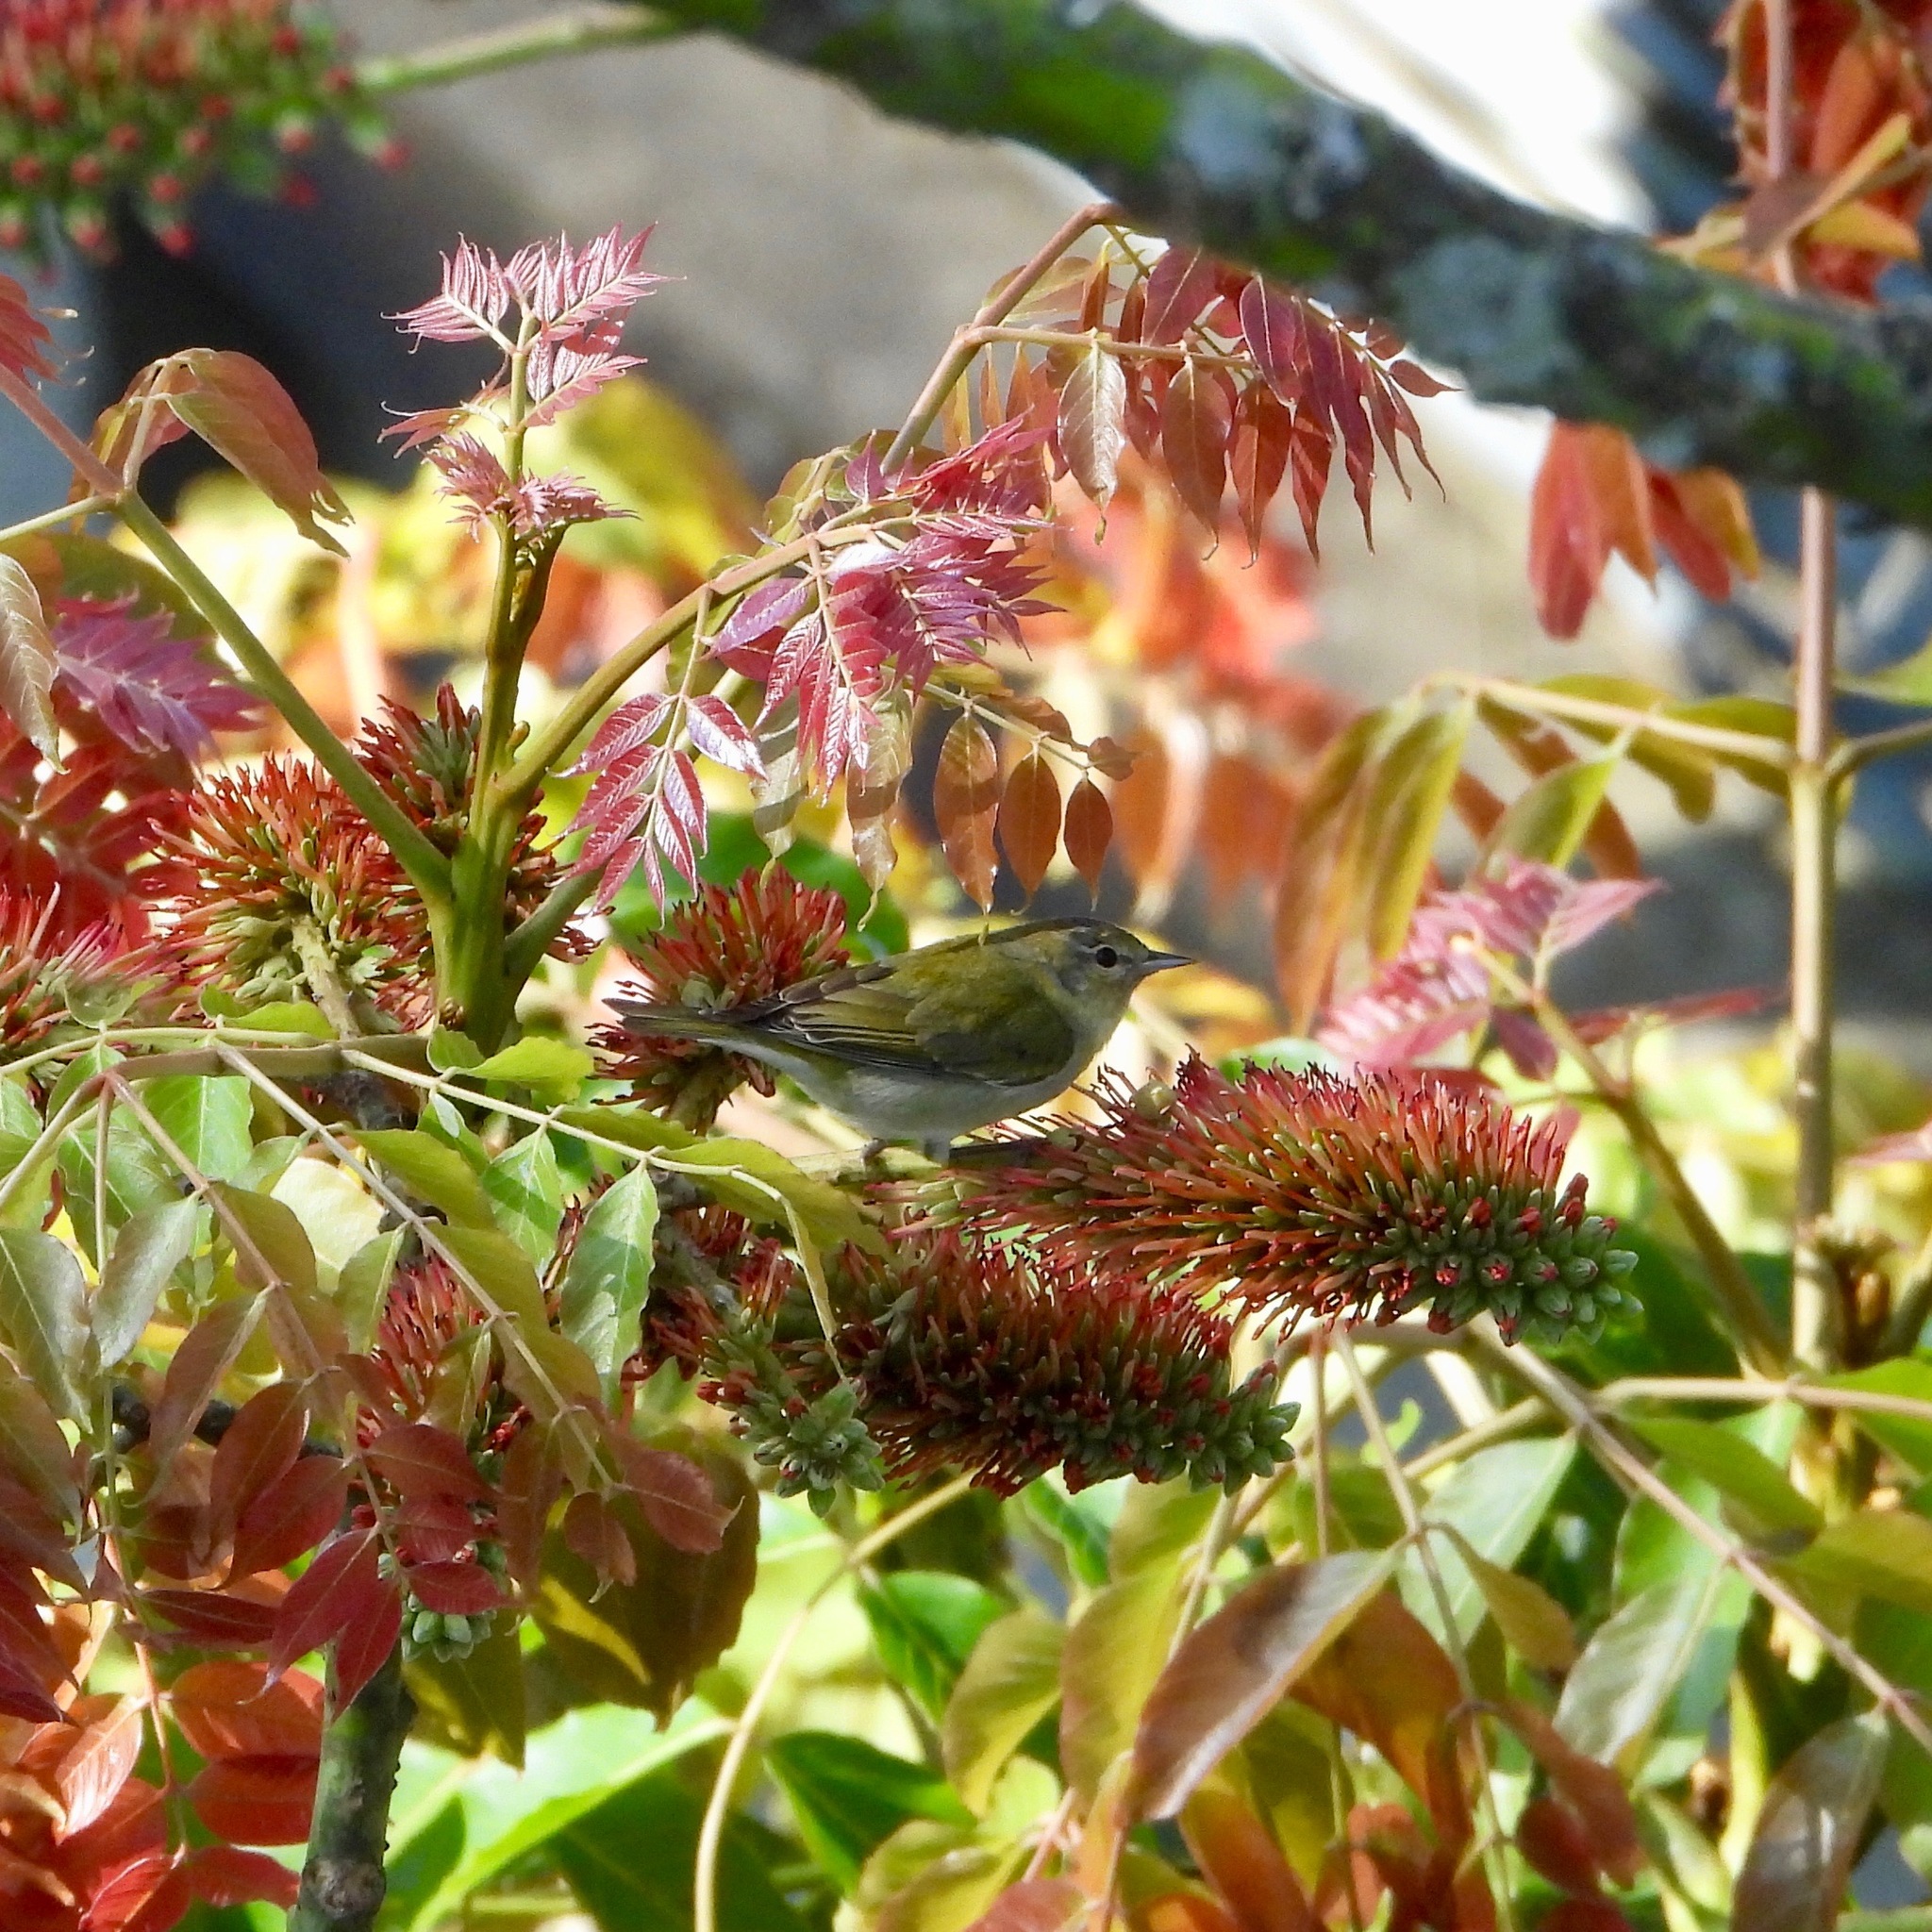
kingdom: Animalia
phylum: Chordata
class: Aves
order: Passeriformes
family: Parulidae
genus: Leiothlypis
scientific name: Leiothlypis peregrina
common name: Tennessee warbler
